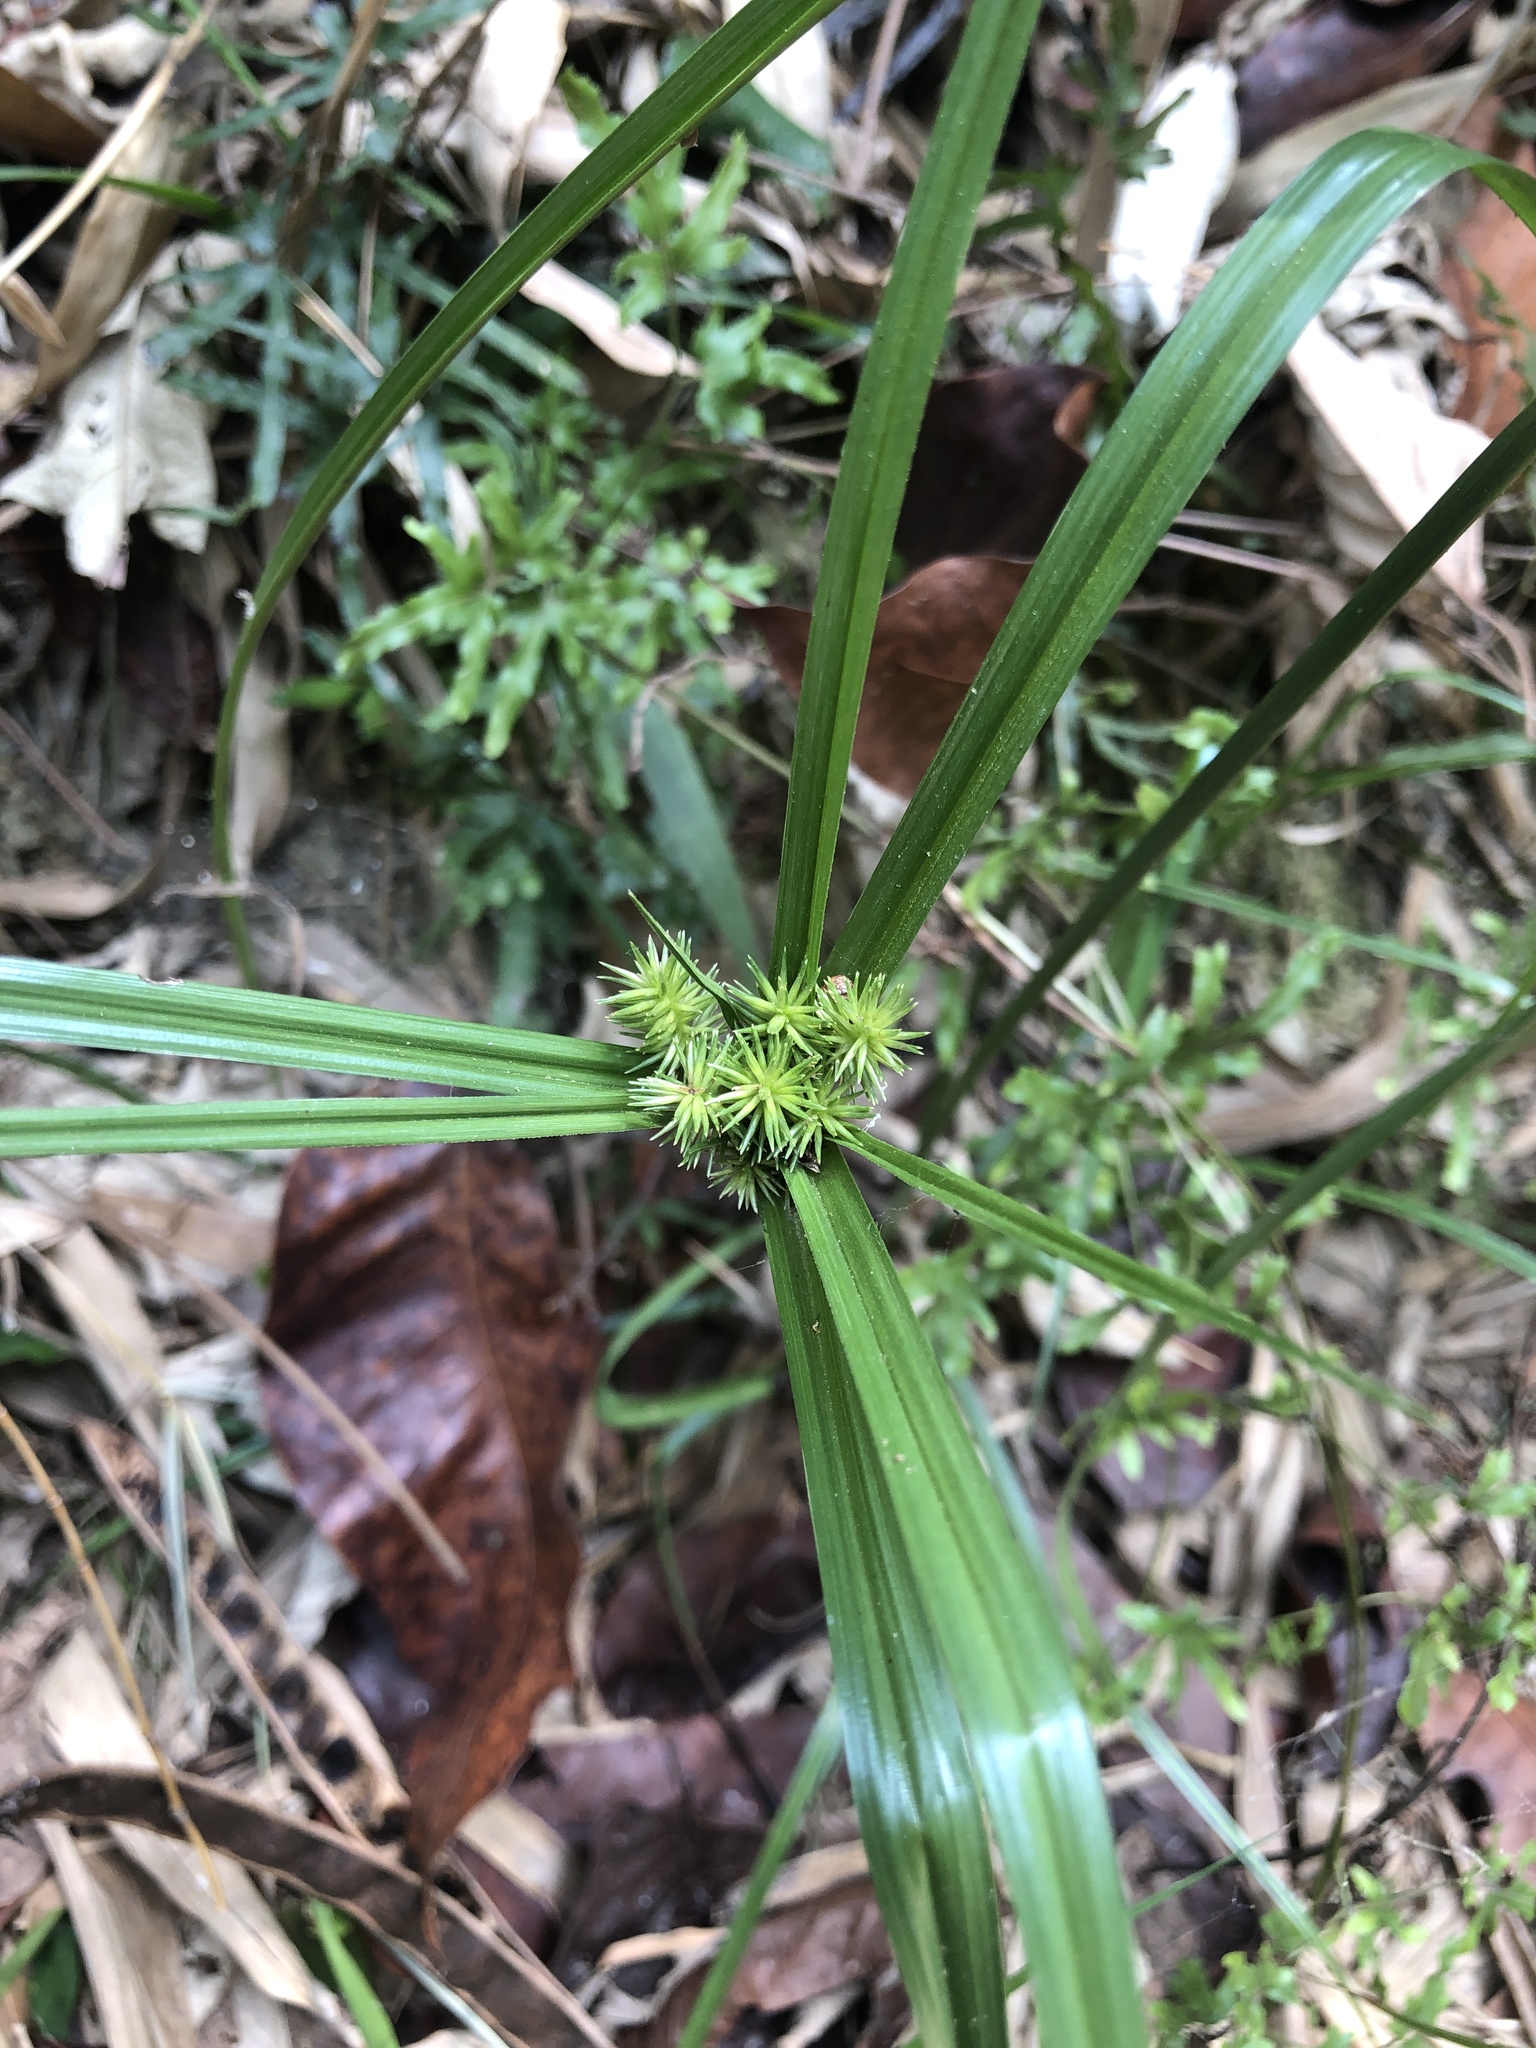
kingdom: Plantae
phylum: Tracheophyta
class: Liliopsida
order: Poales
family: Cyperaceae
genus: Cyperus
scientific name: Cyperus cyperoides
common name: Pacific island flat sedge
